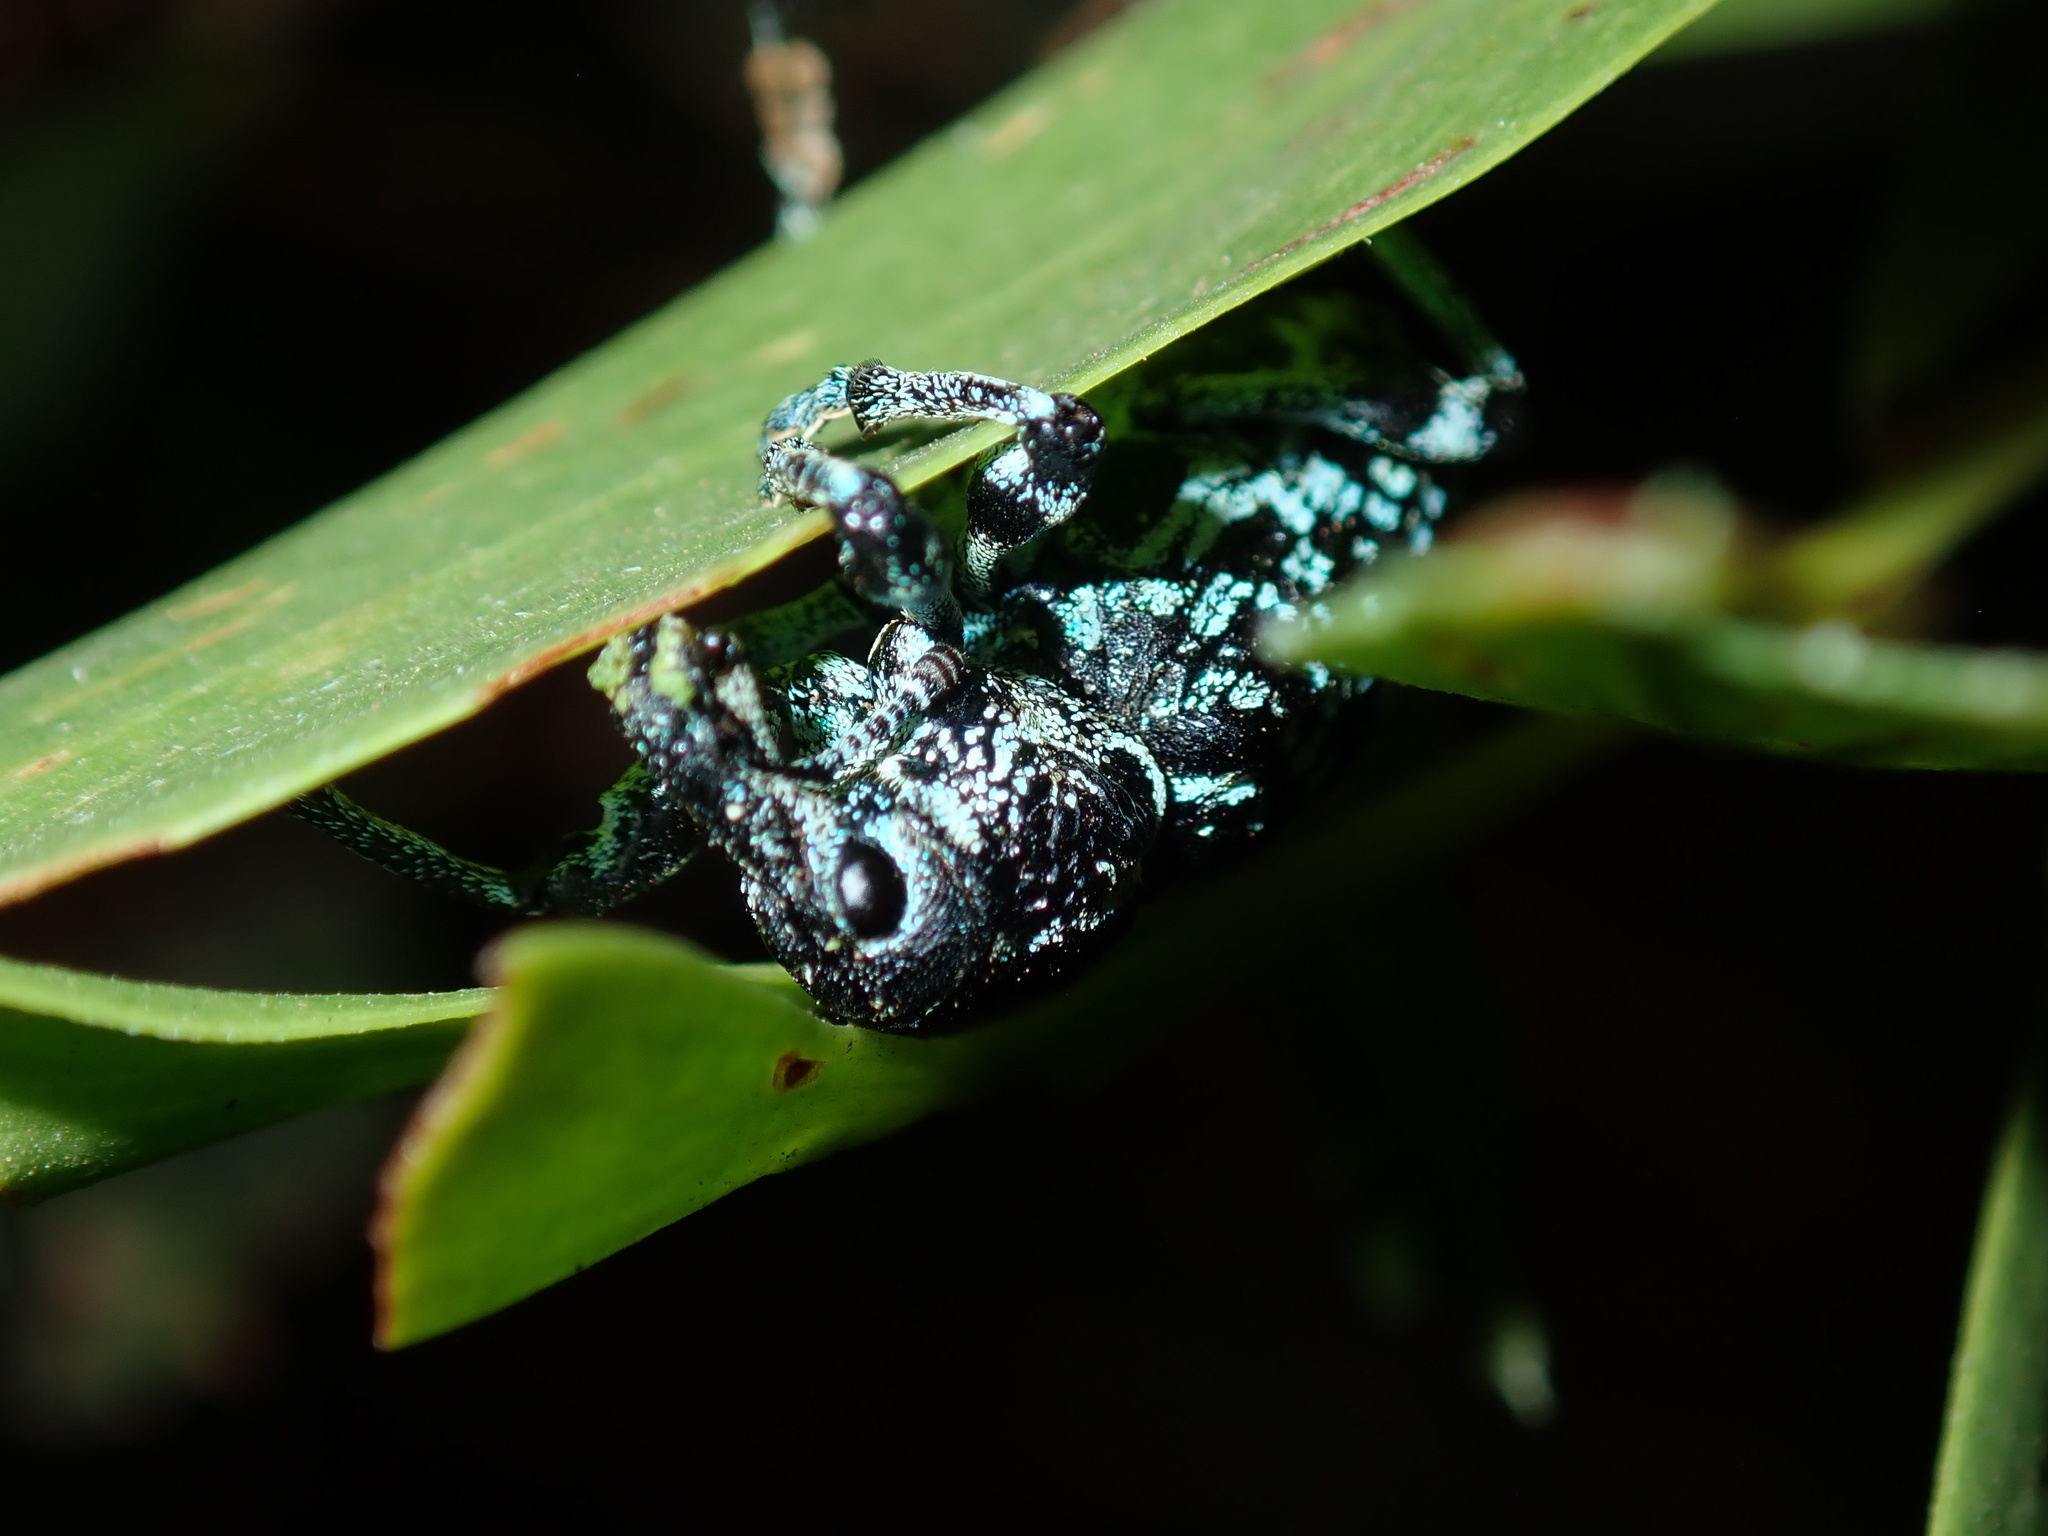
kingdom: Animalia
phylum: Arthropoda
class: Insecta
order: Coleoptera
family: Curculionidae
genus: Chrysolopus
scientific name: Chrysolopus spectabilis
